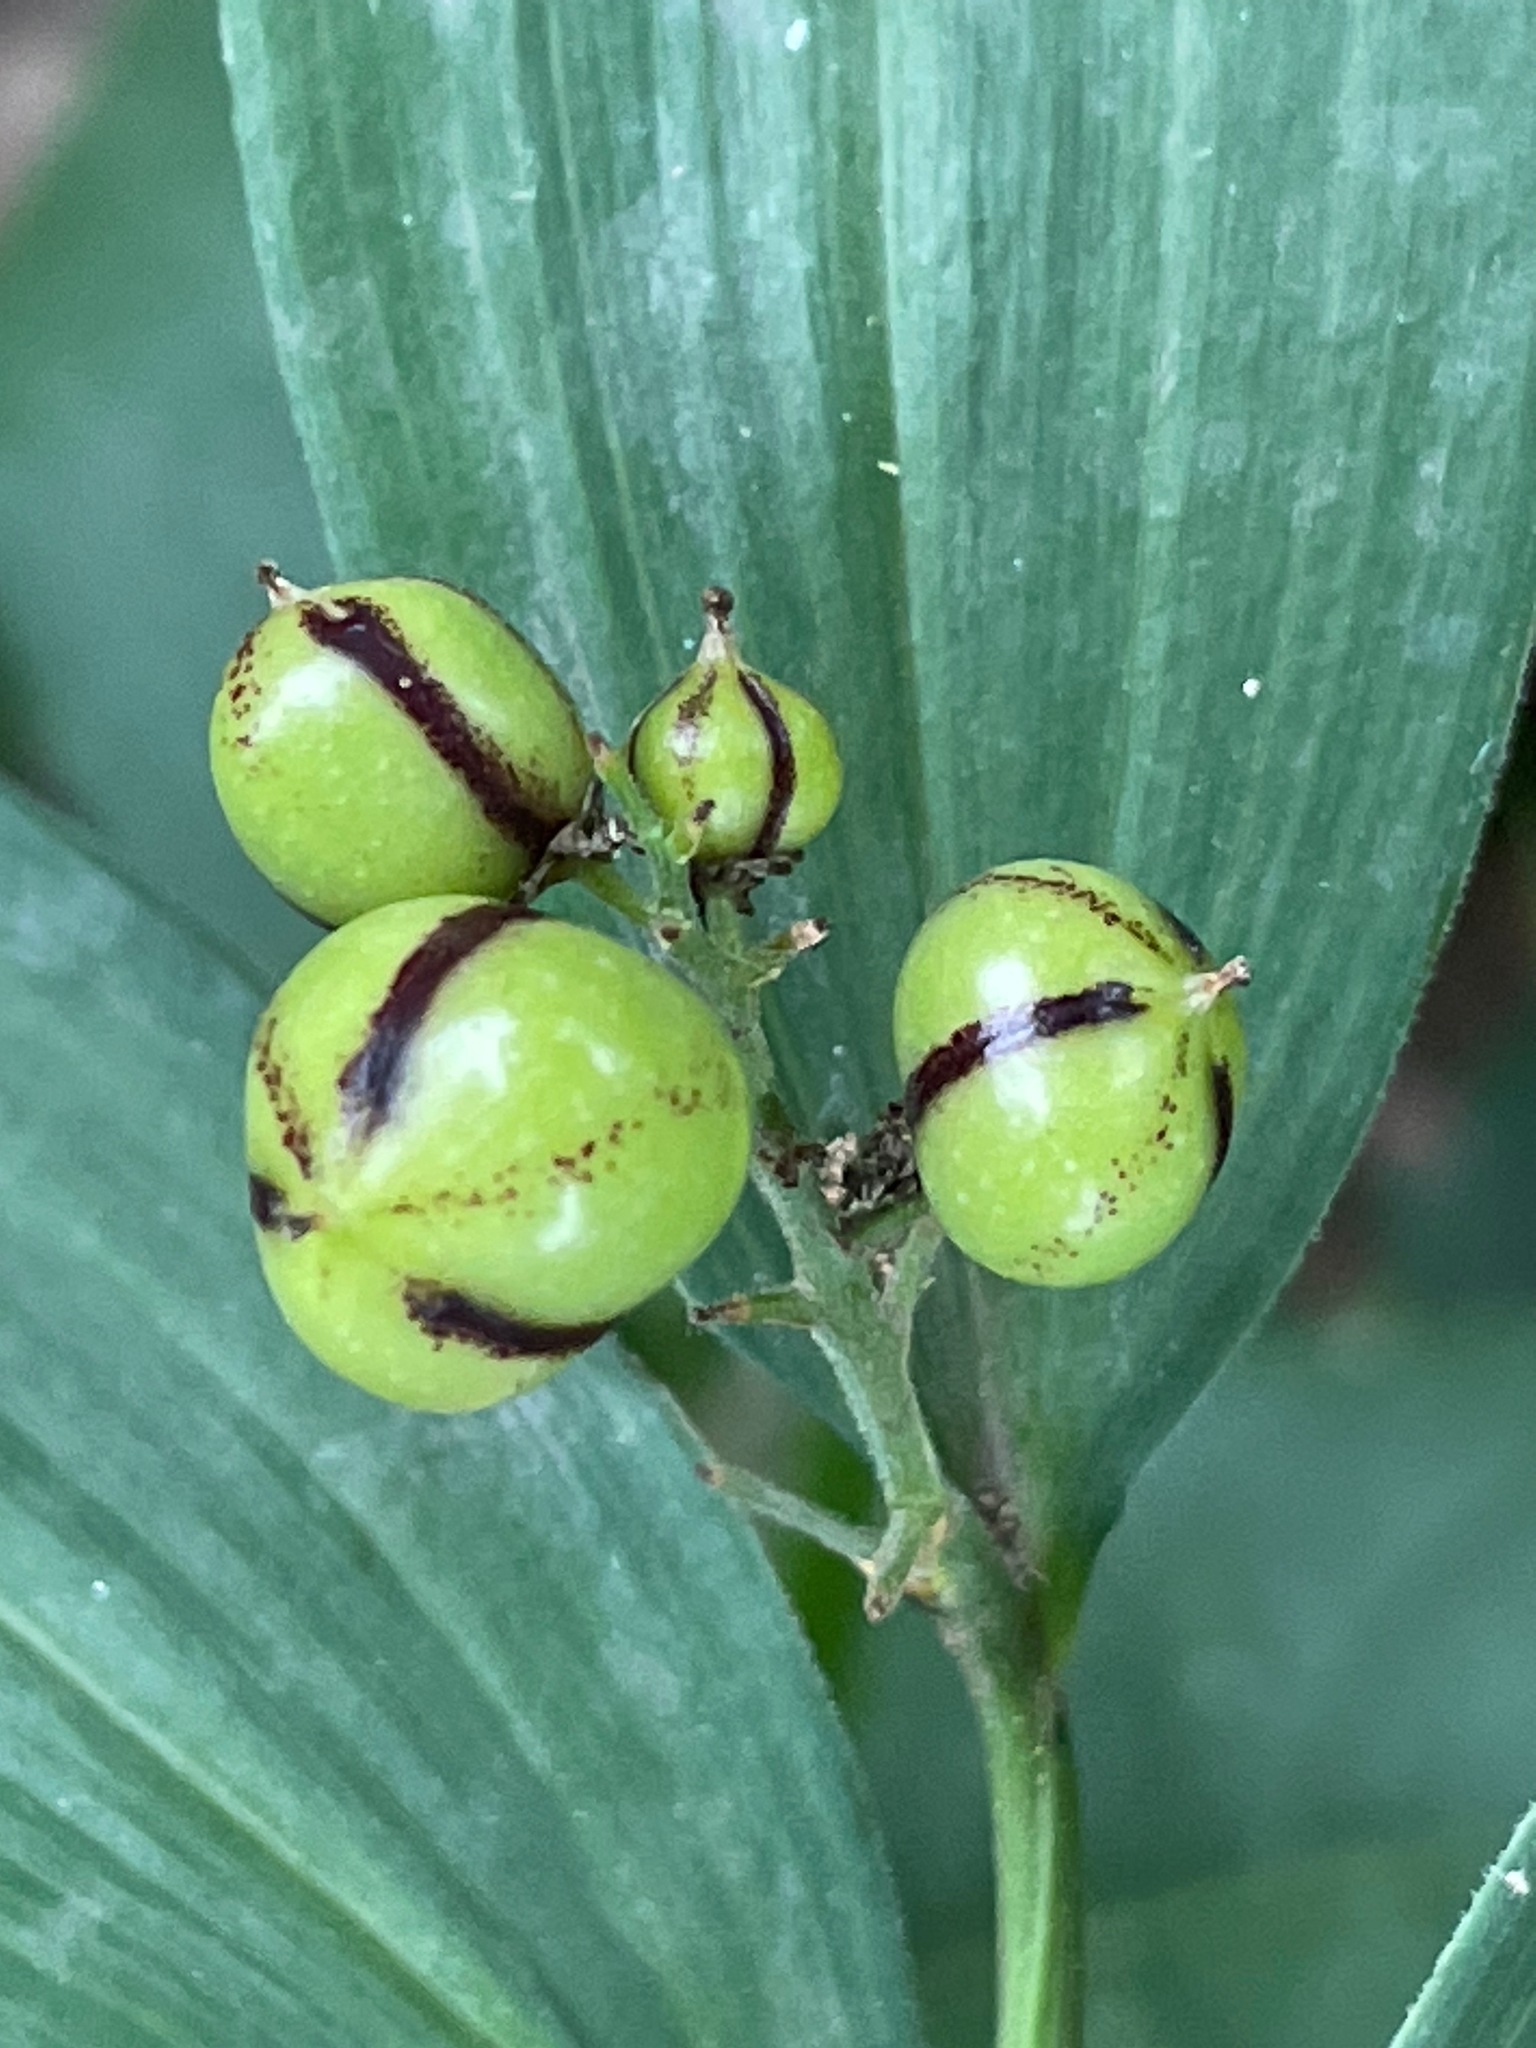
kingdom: Plantae
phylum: Tracheophyta
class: Liliopsida
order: Asparagales
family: Asparagaceae
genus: Maianthemum
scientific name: Maianthemum stellatum
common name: Little false solomon's seal
